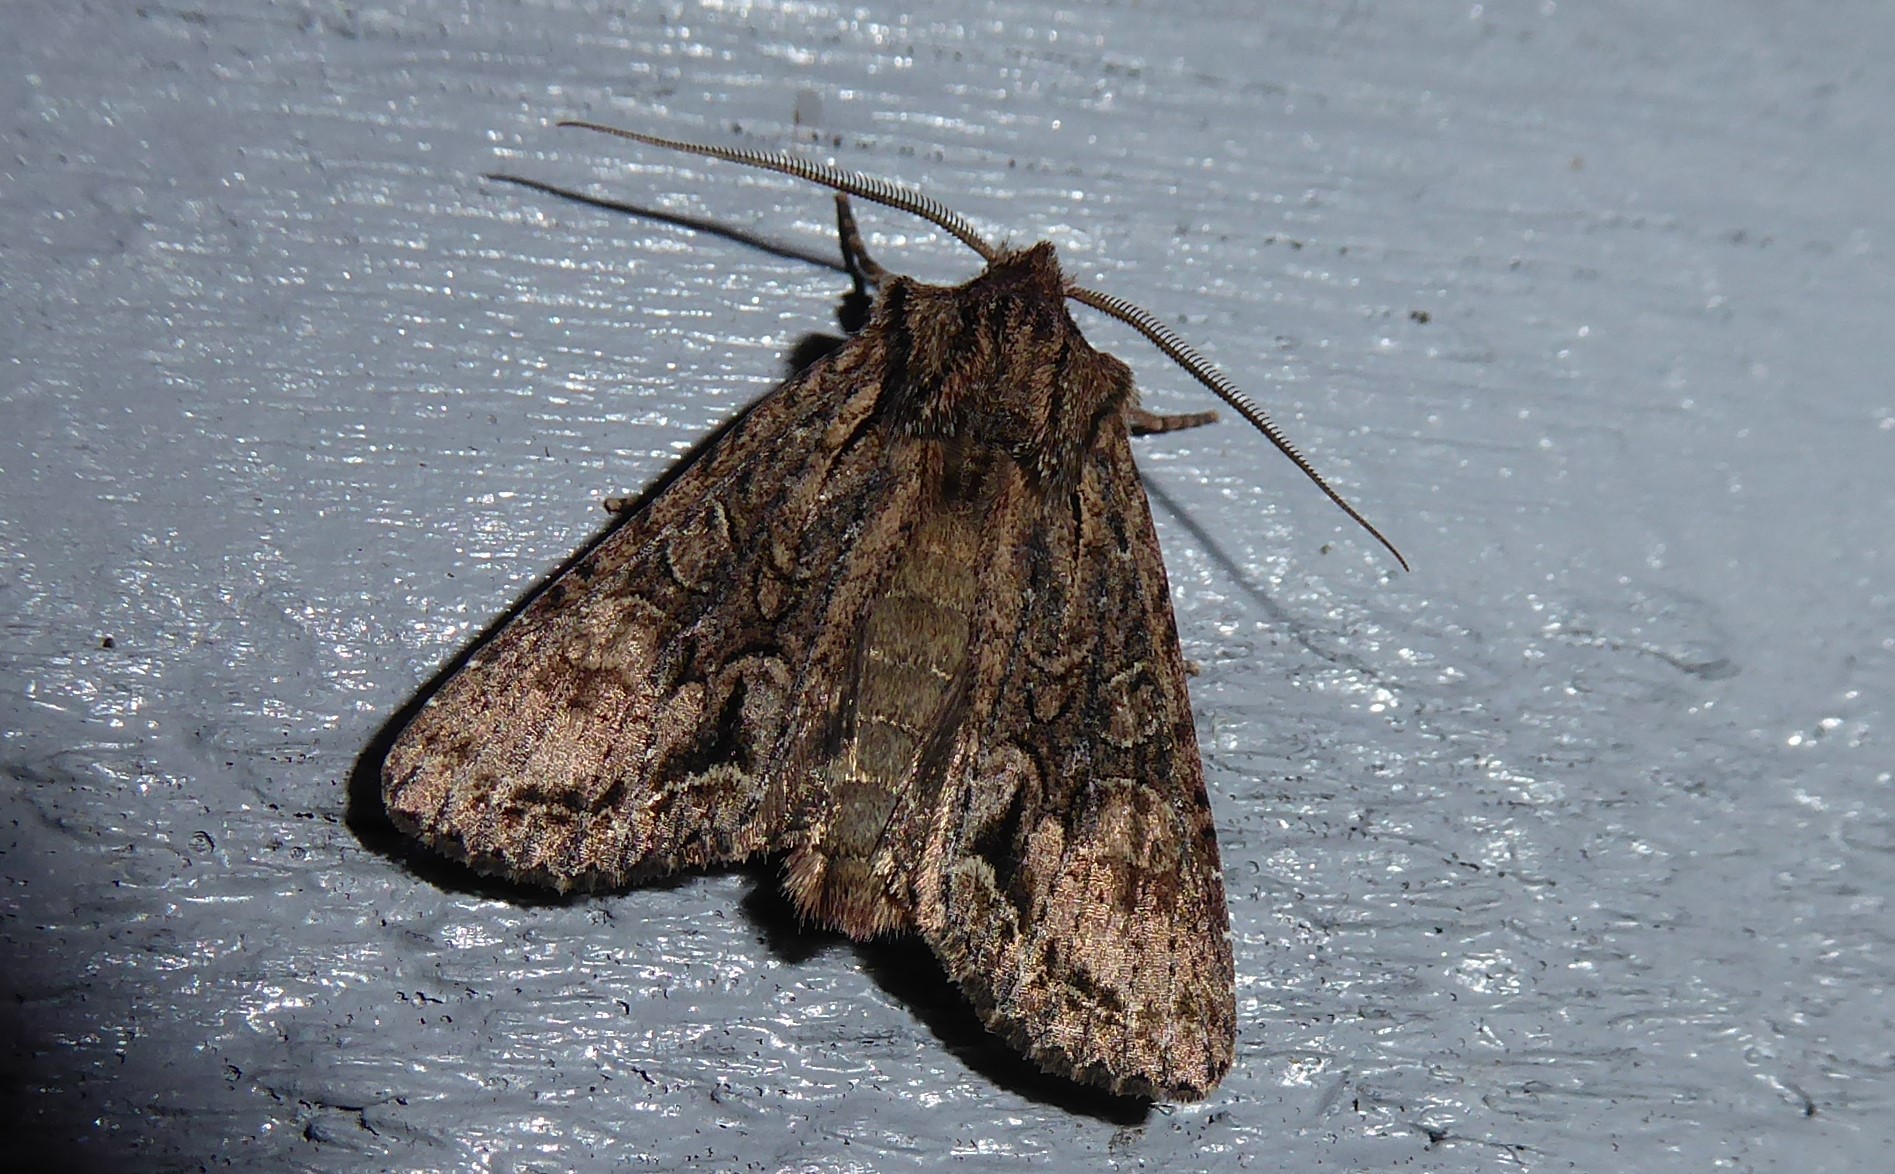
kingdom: Animalia
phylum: Arthropoda
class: Insecta
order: Lepidoptera
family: Noctuidae
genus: Ichneutica
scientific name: Ichneutica mutans
